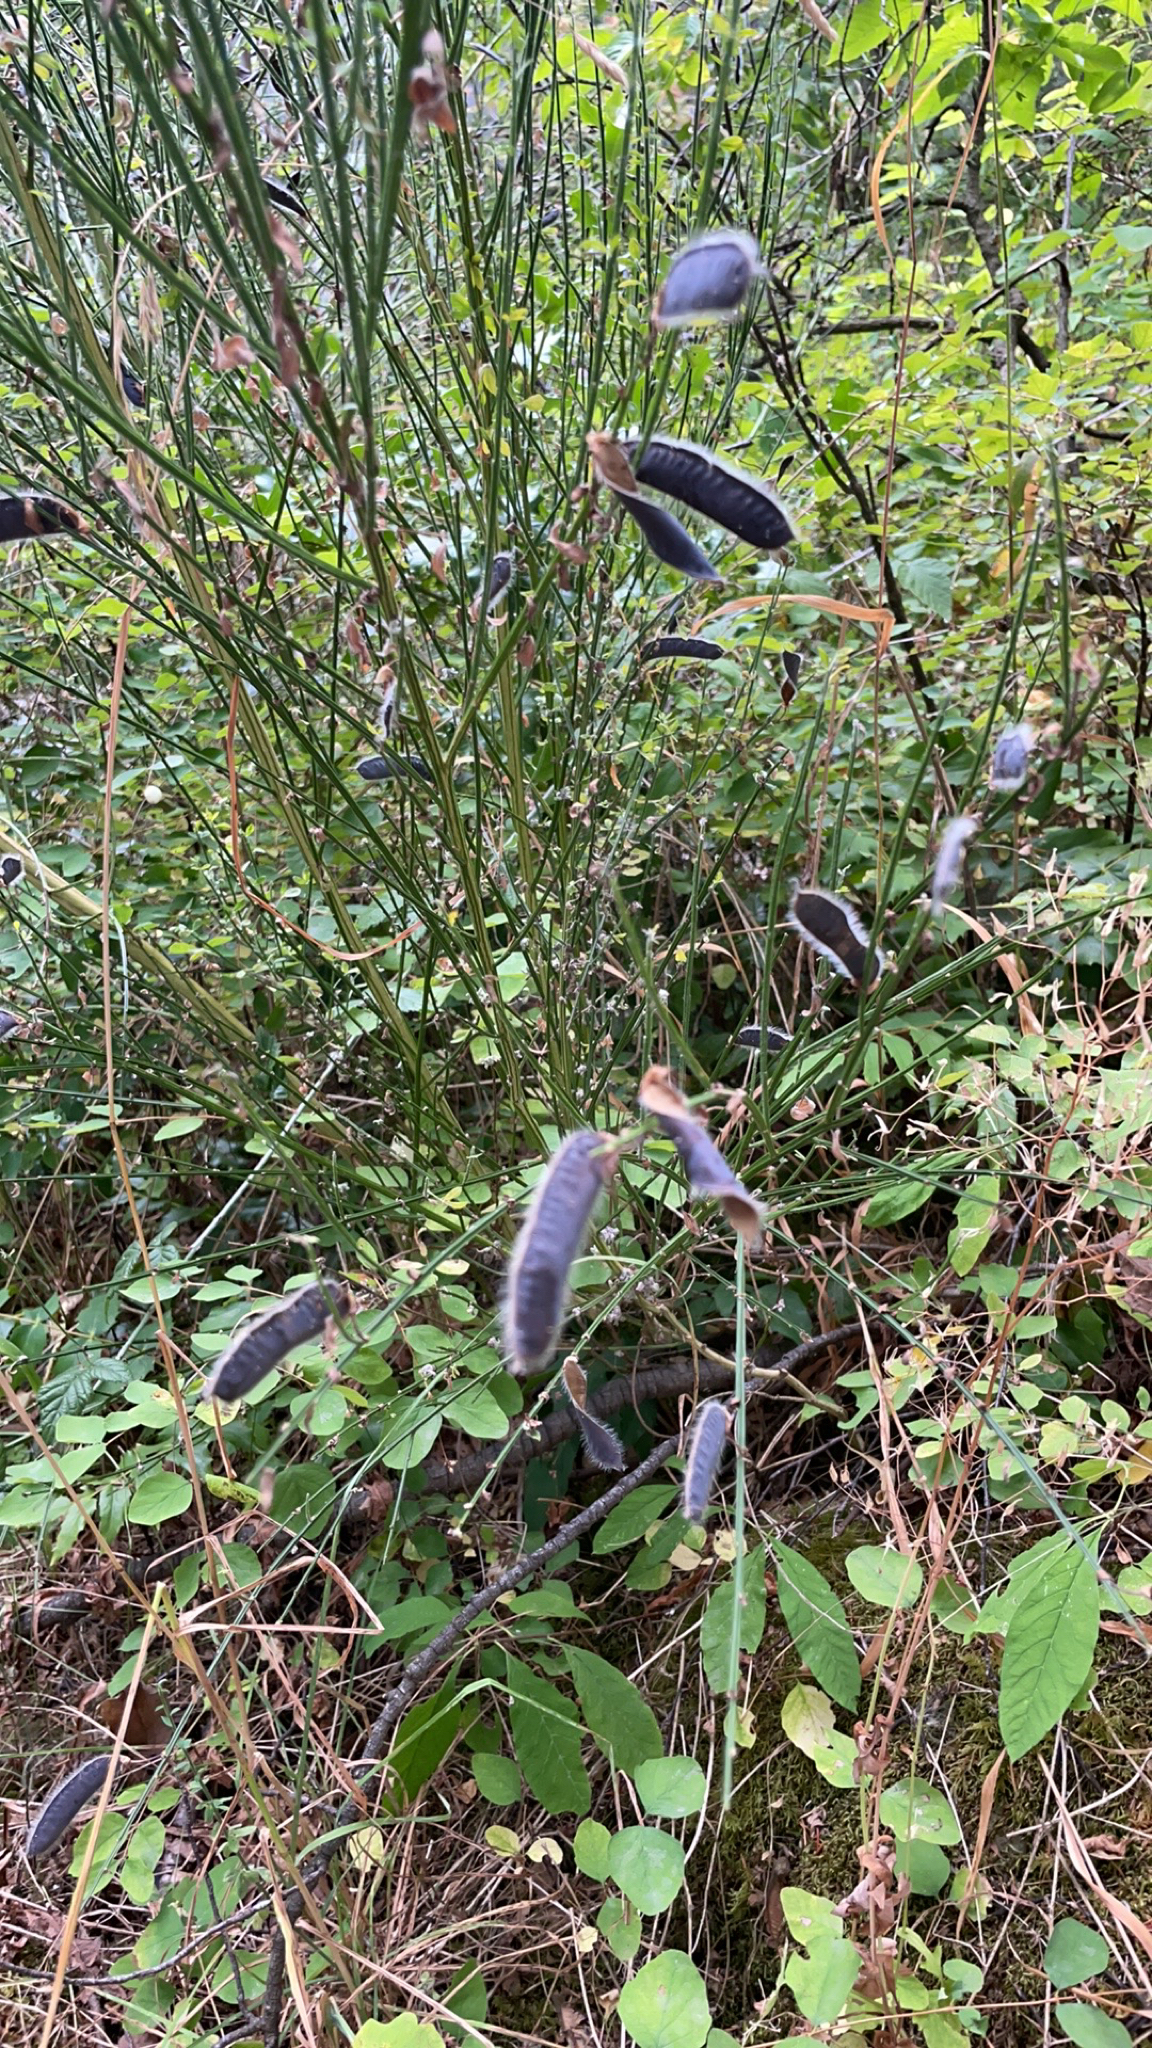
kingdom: Plantae
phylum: Tracheophyta
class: Magnoliopsida
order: Fabales
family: Fabaceae
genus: Cytisus
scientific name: Cytisus scoparius
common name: Scotch broom
